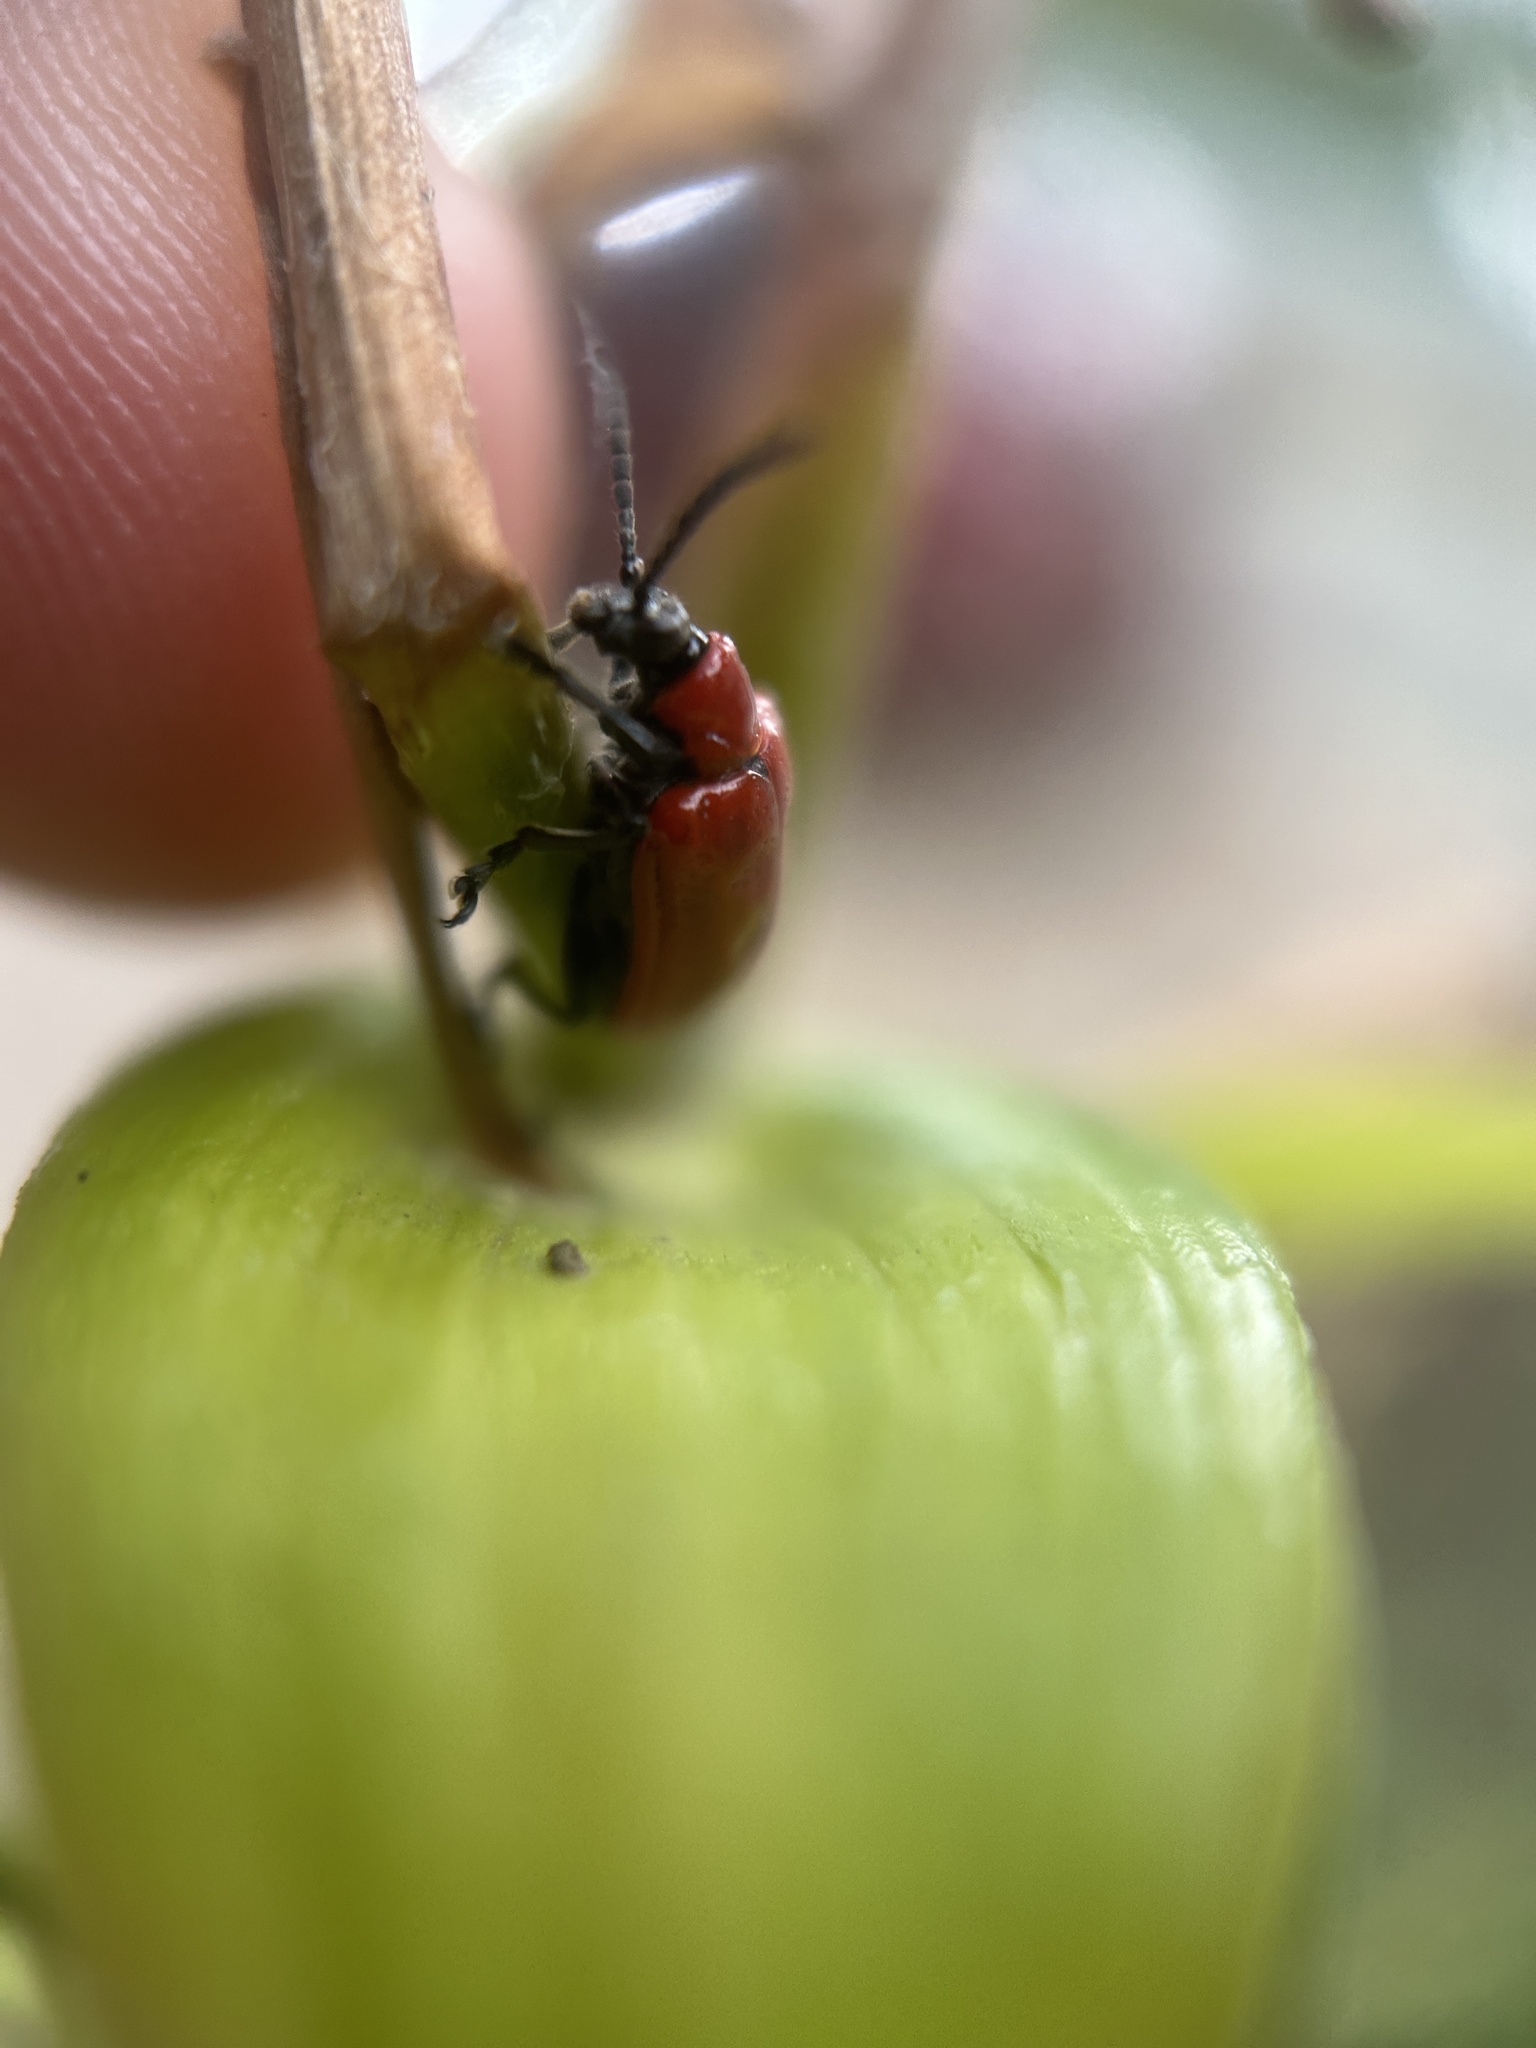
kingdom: Animalia
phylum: Arthropoda
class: Insecta
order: Coleoptera
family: Chrysomelidae
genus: Lilioceris
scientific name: Lilioceris lilii
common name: Lily beetle
